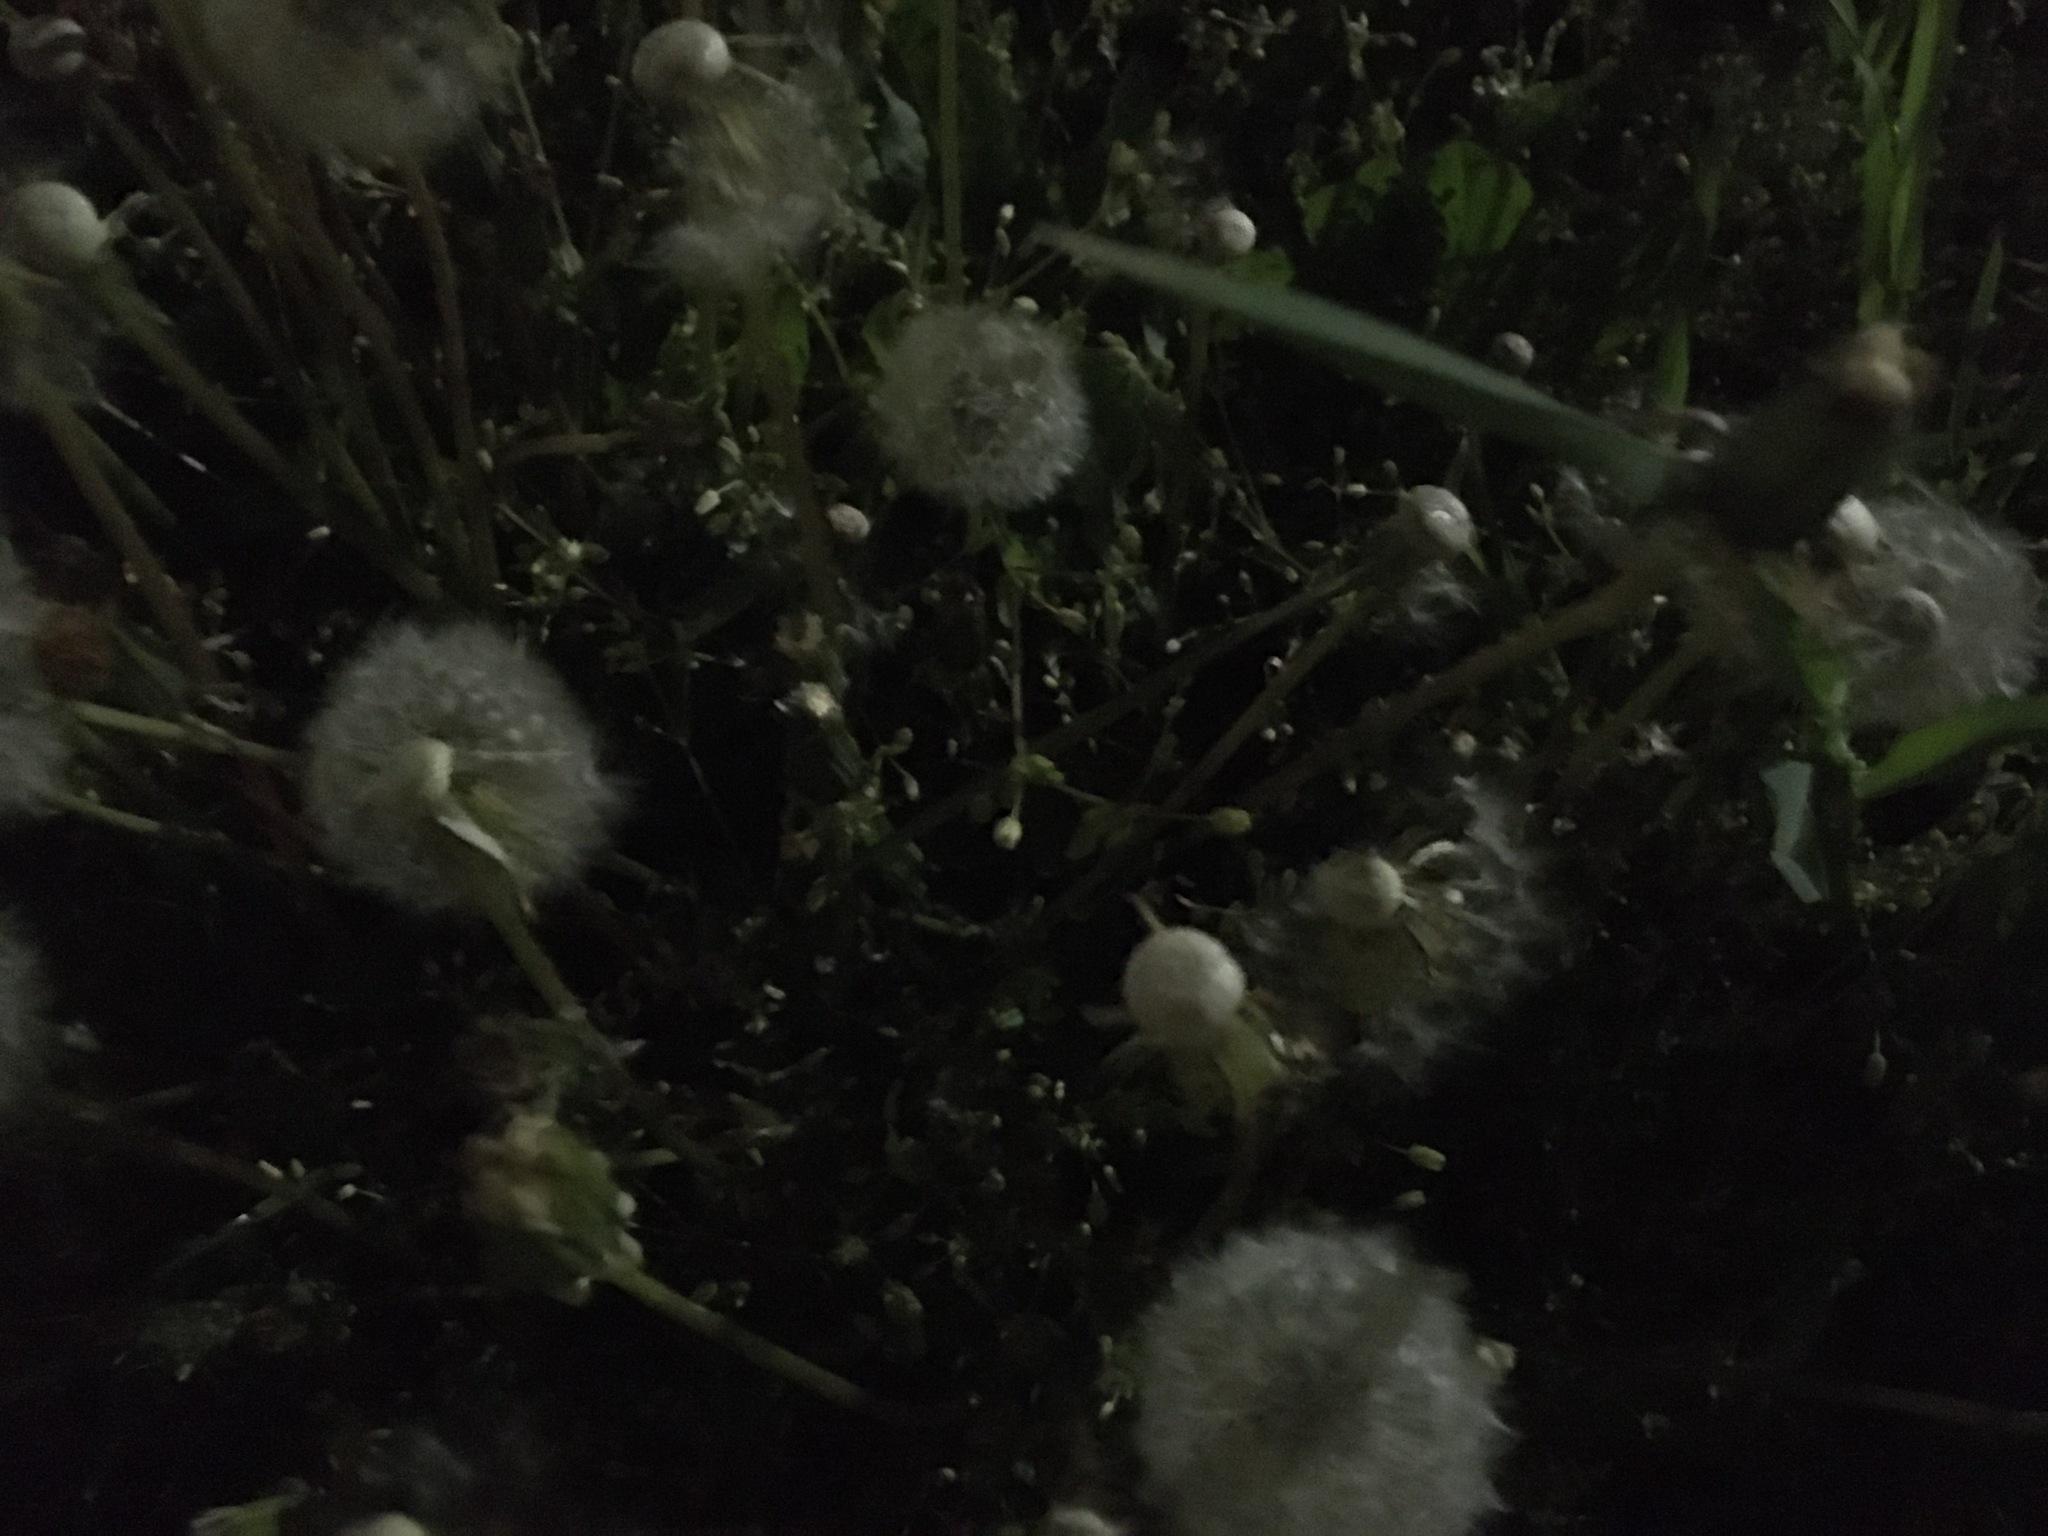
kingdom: Plantae
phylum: Tracheophyta
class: Magnoliopsida
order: Asterales
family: Asteraceae
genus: Taraxacum
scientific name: Taraxacum officinale
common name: Common dandelion
